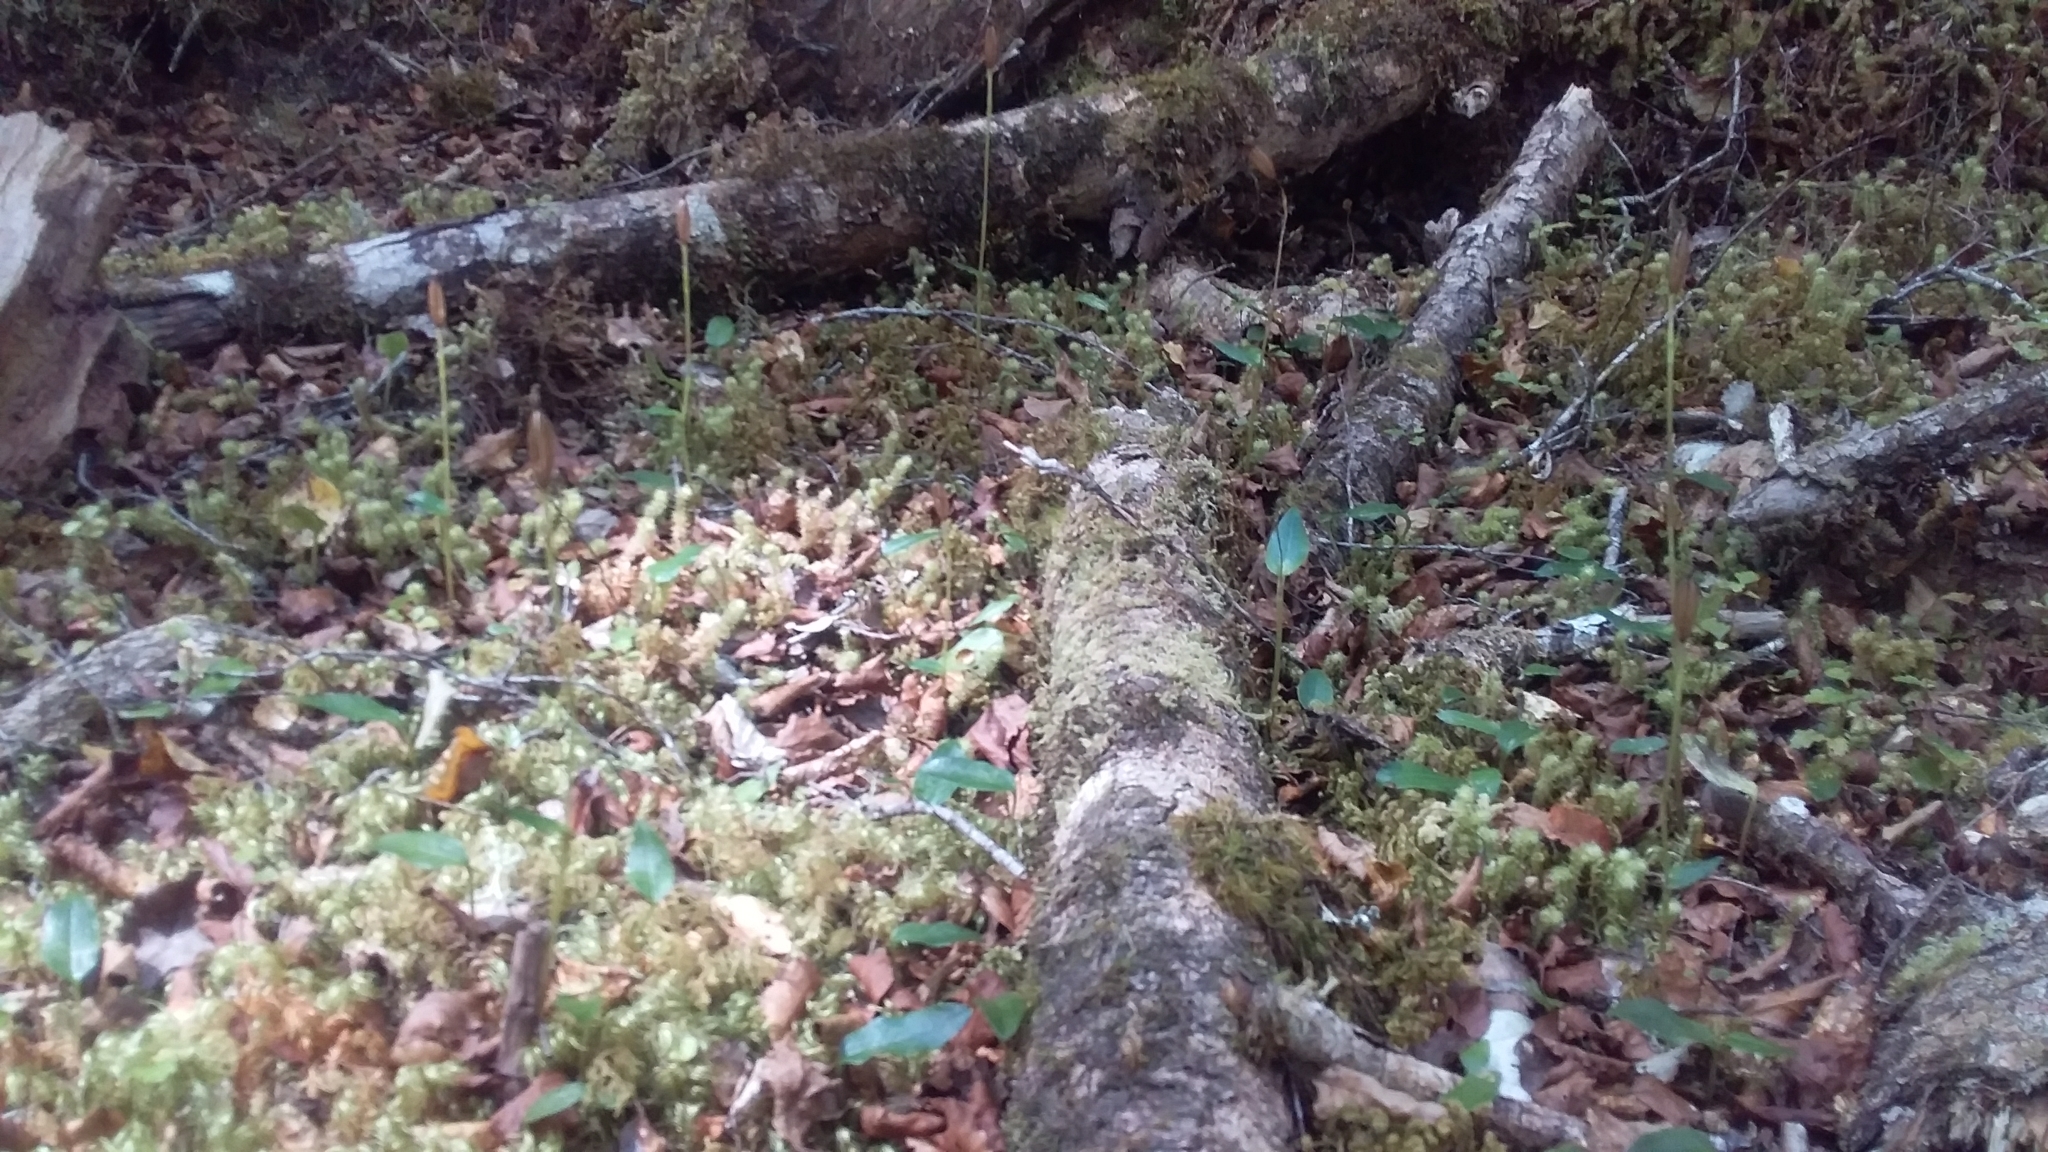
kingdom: Plantae
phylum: Tracheophyta
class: Liliopsida
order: Asparagales
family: Orchidaceae
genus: Adenochilus
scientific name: Adenochilus gracilis
